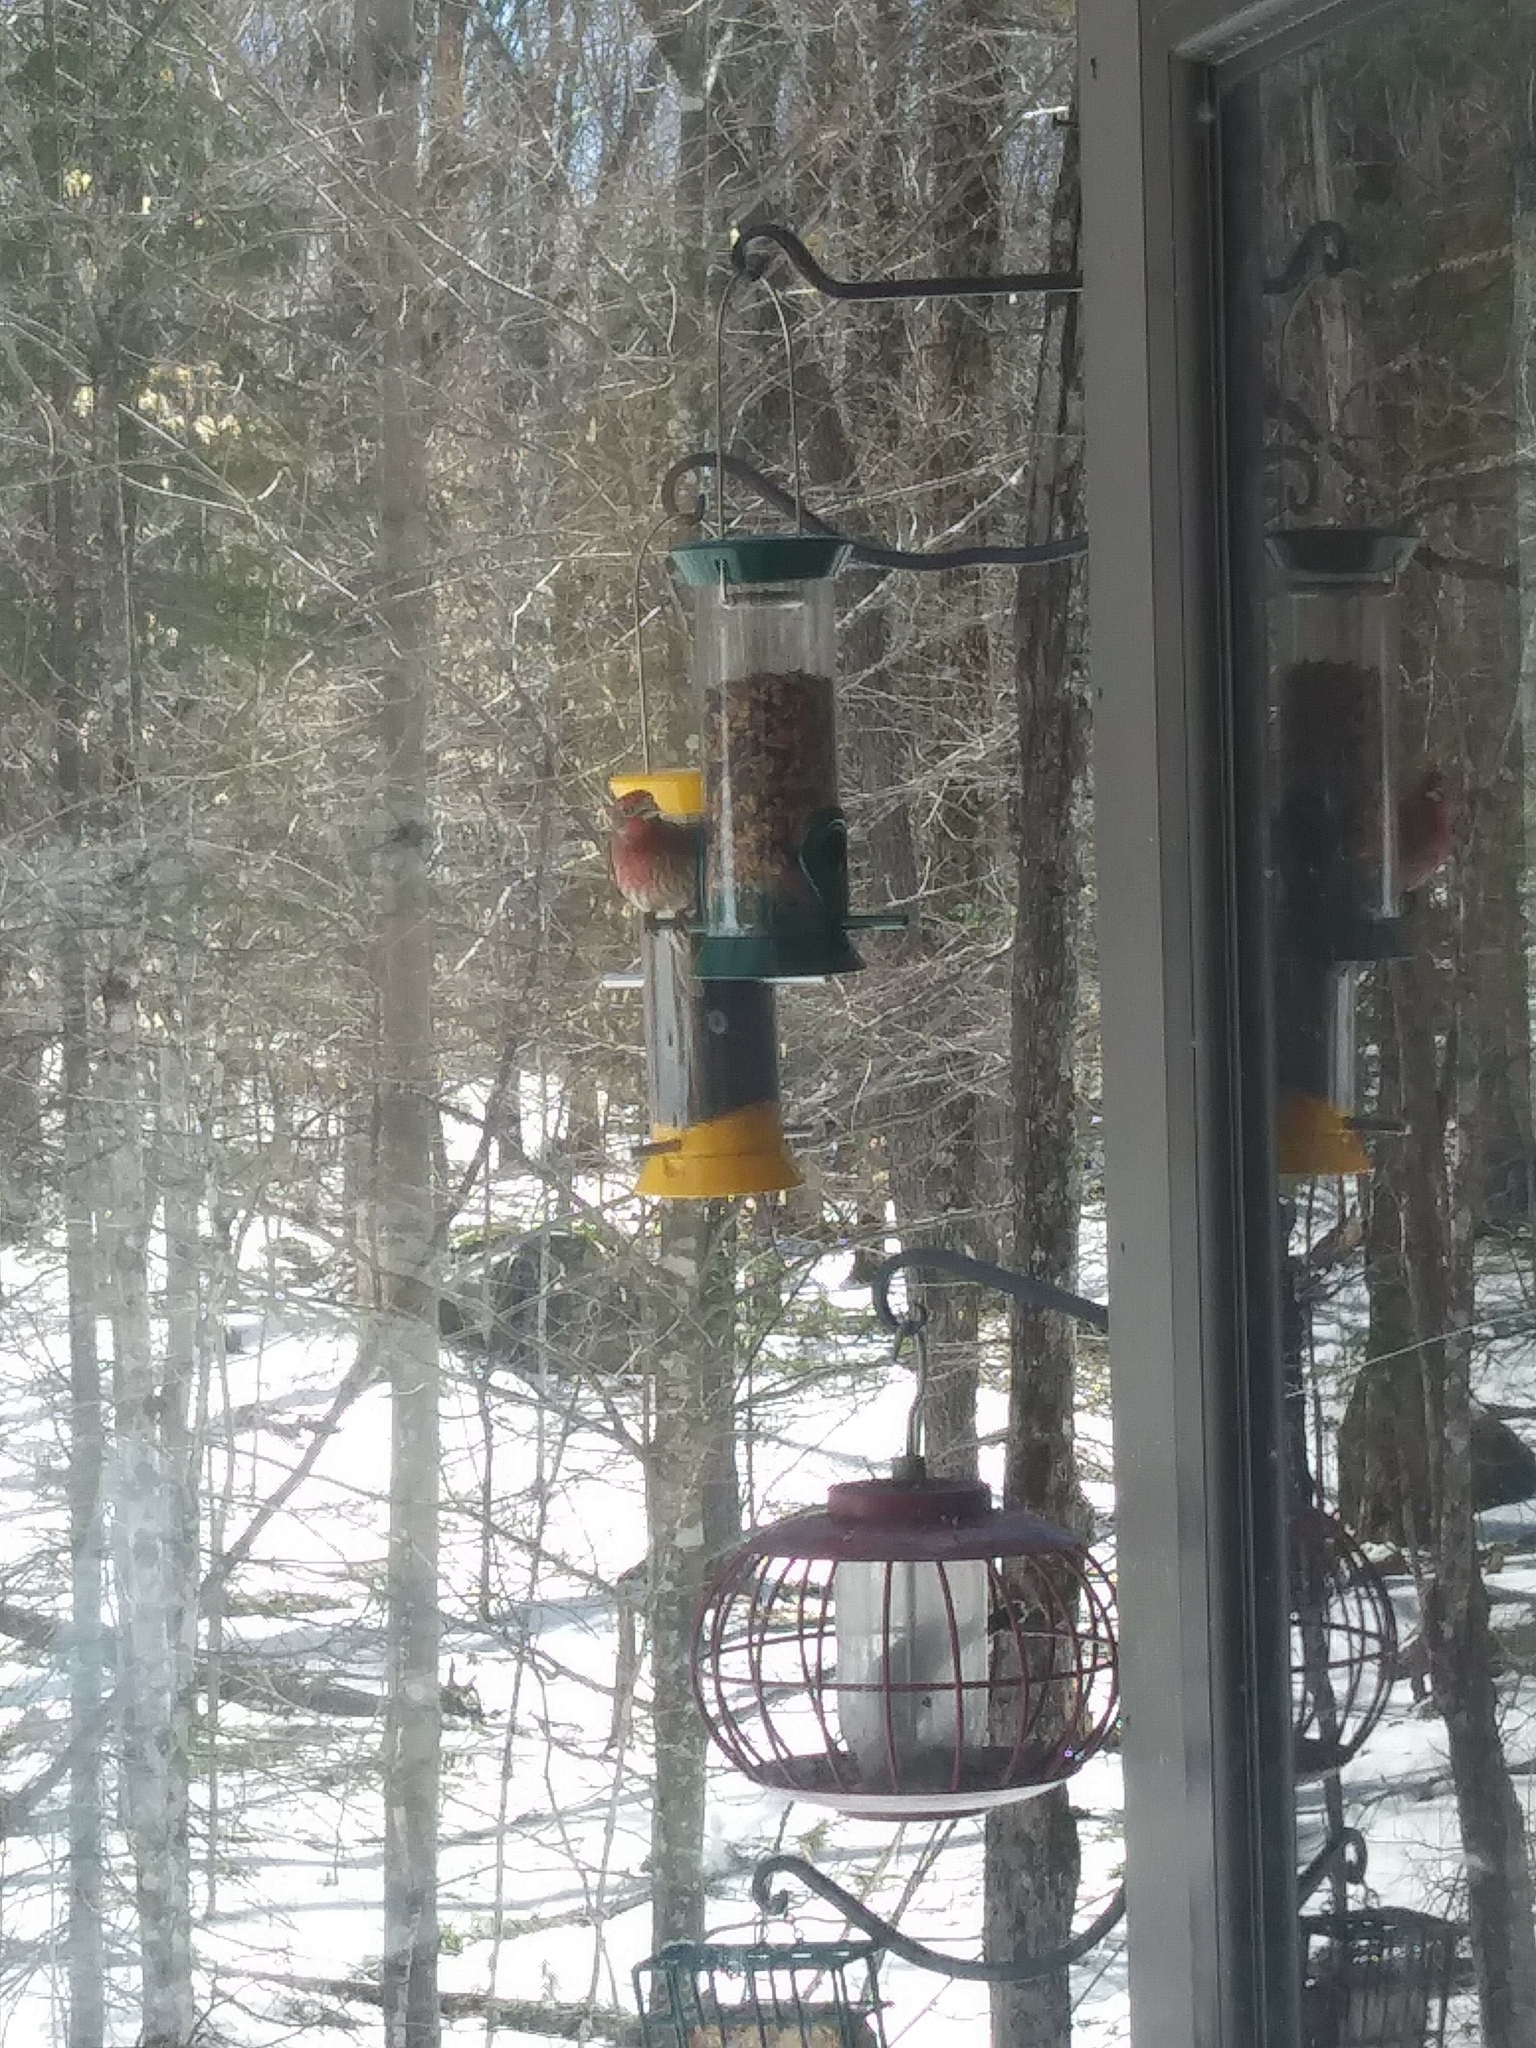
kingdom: Animalia
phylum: Chordata
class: Aves
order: Passeriformes
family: Fringillidae
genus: Haemorhous
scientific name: Haemorhous mexicanus
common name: House finch
